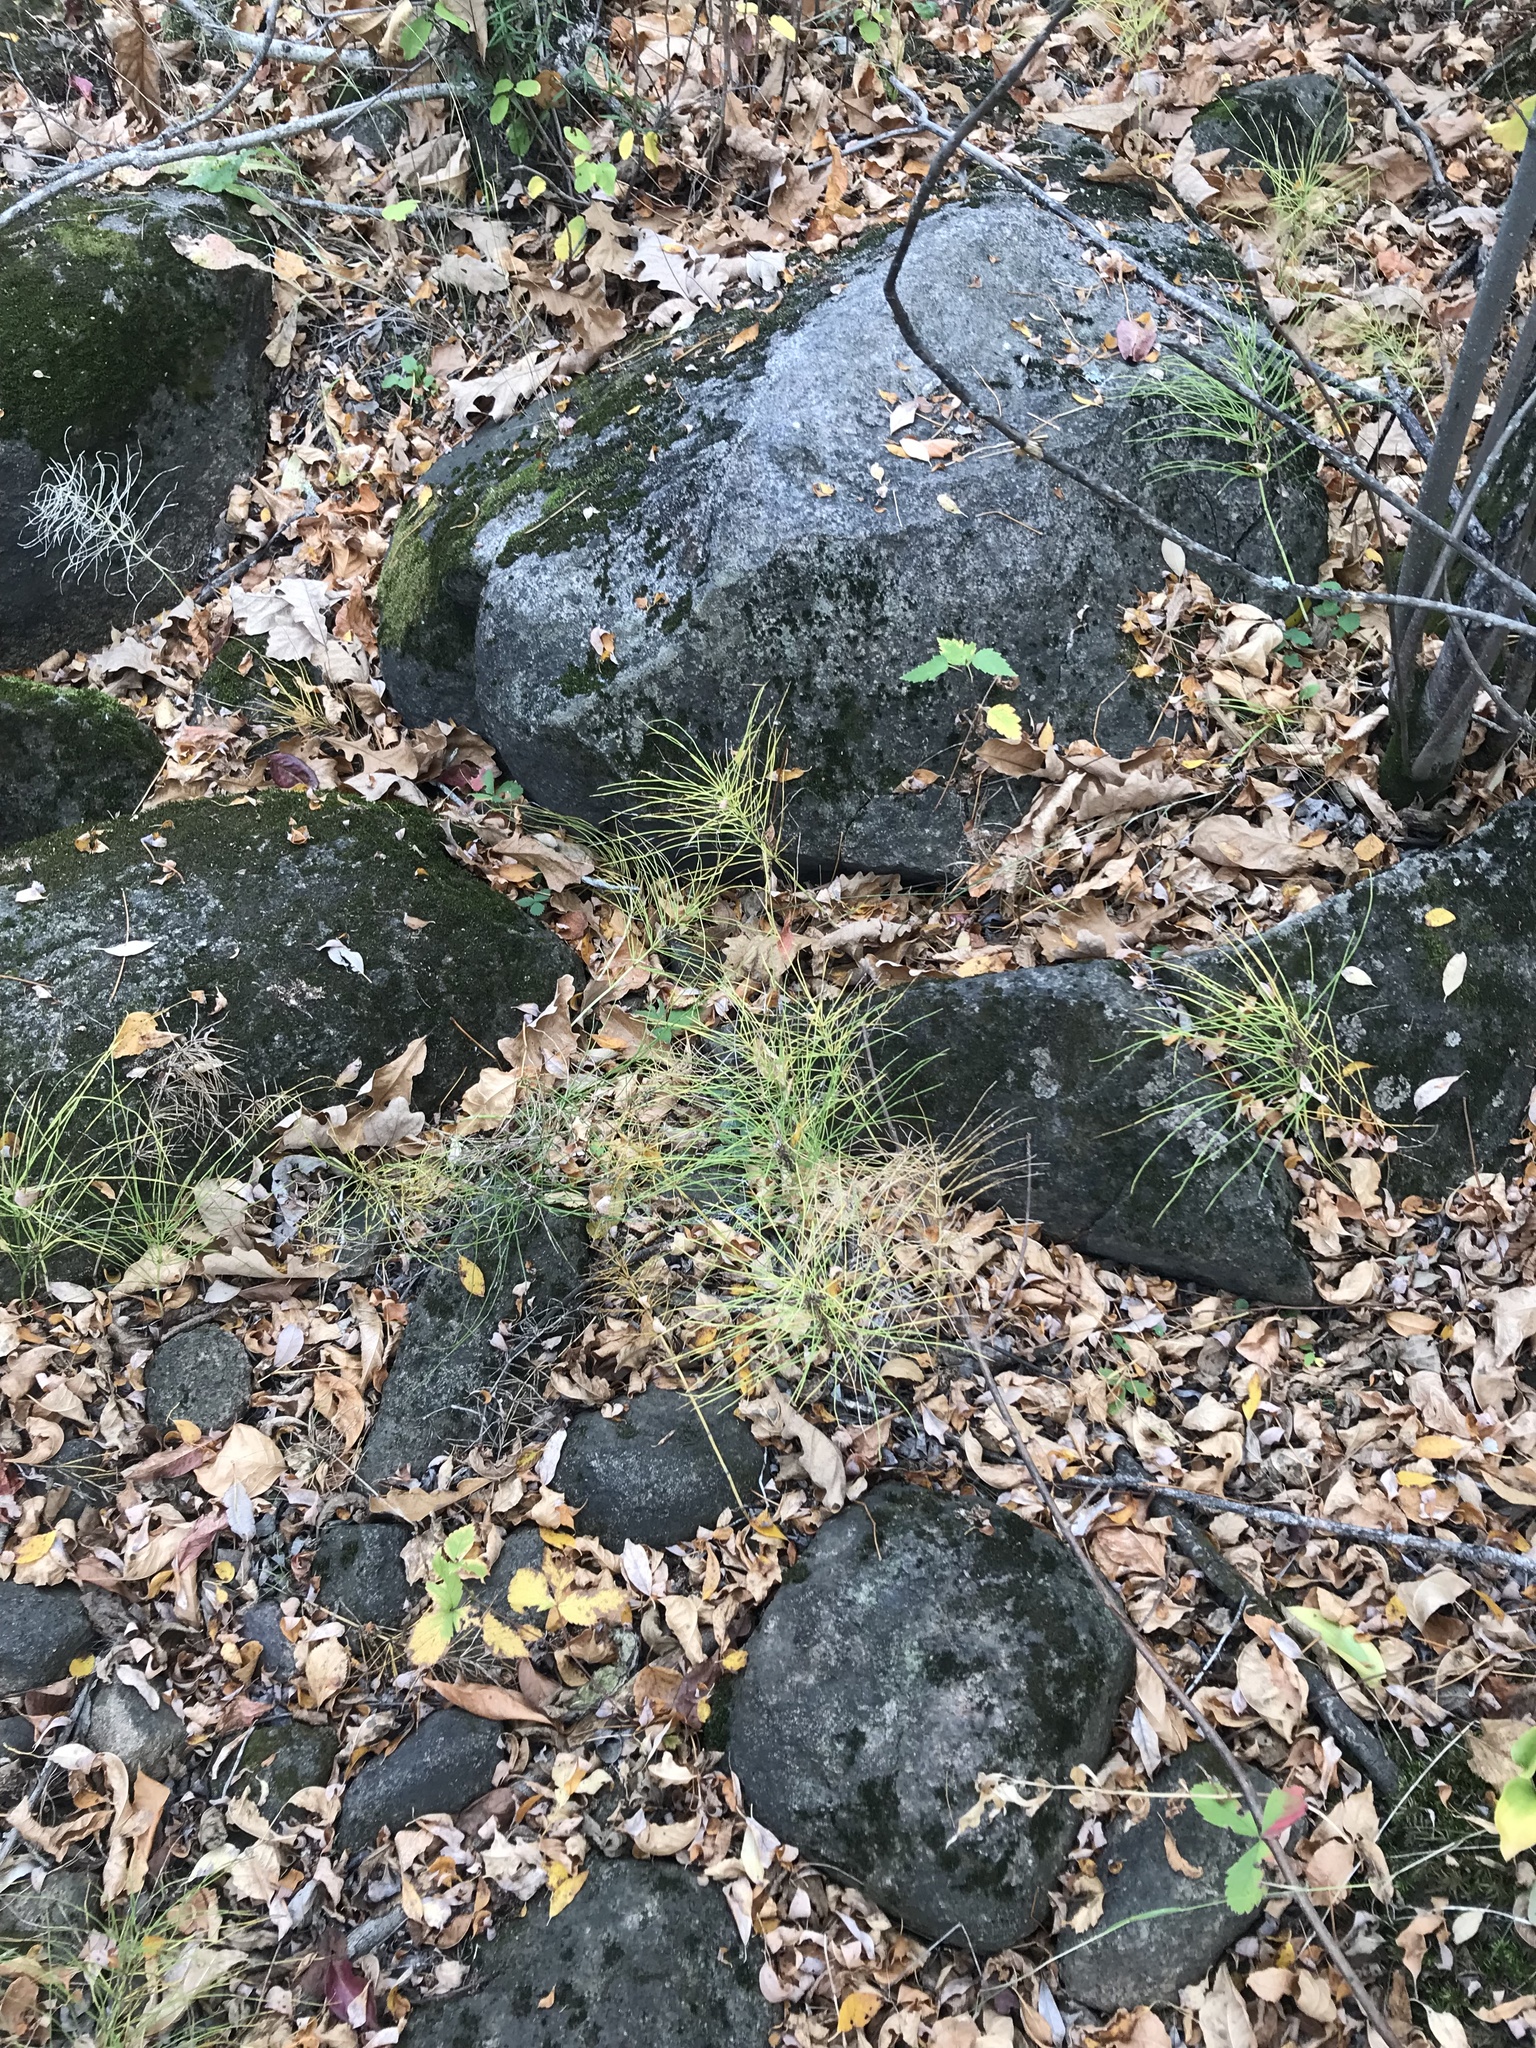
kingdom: Plantae
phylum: Tracheophyta
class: Polypodiopsida
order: Equisetales
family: Equisetaceae
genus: Equisetum
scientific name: Equisetum arvense
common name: Field horsetail
